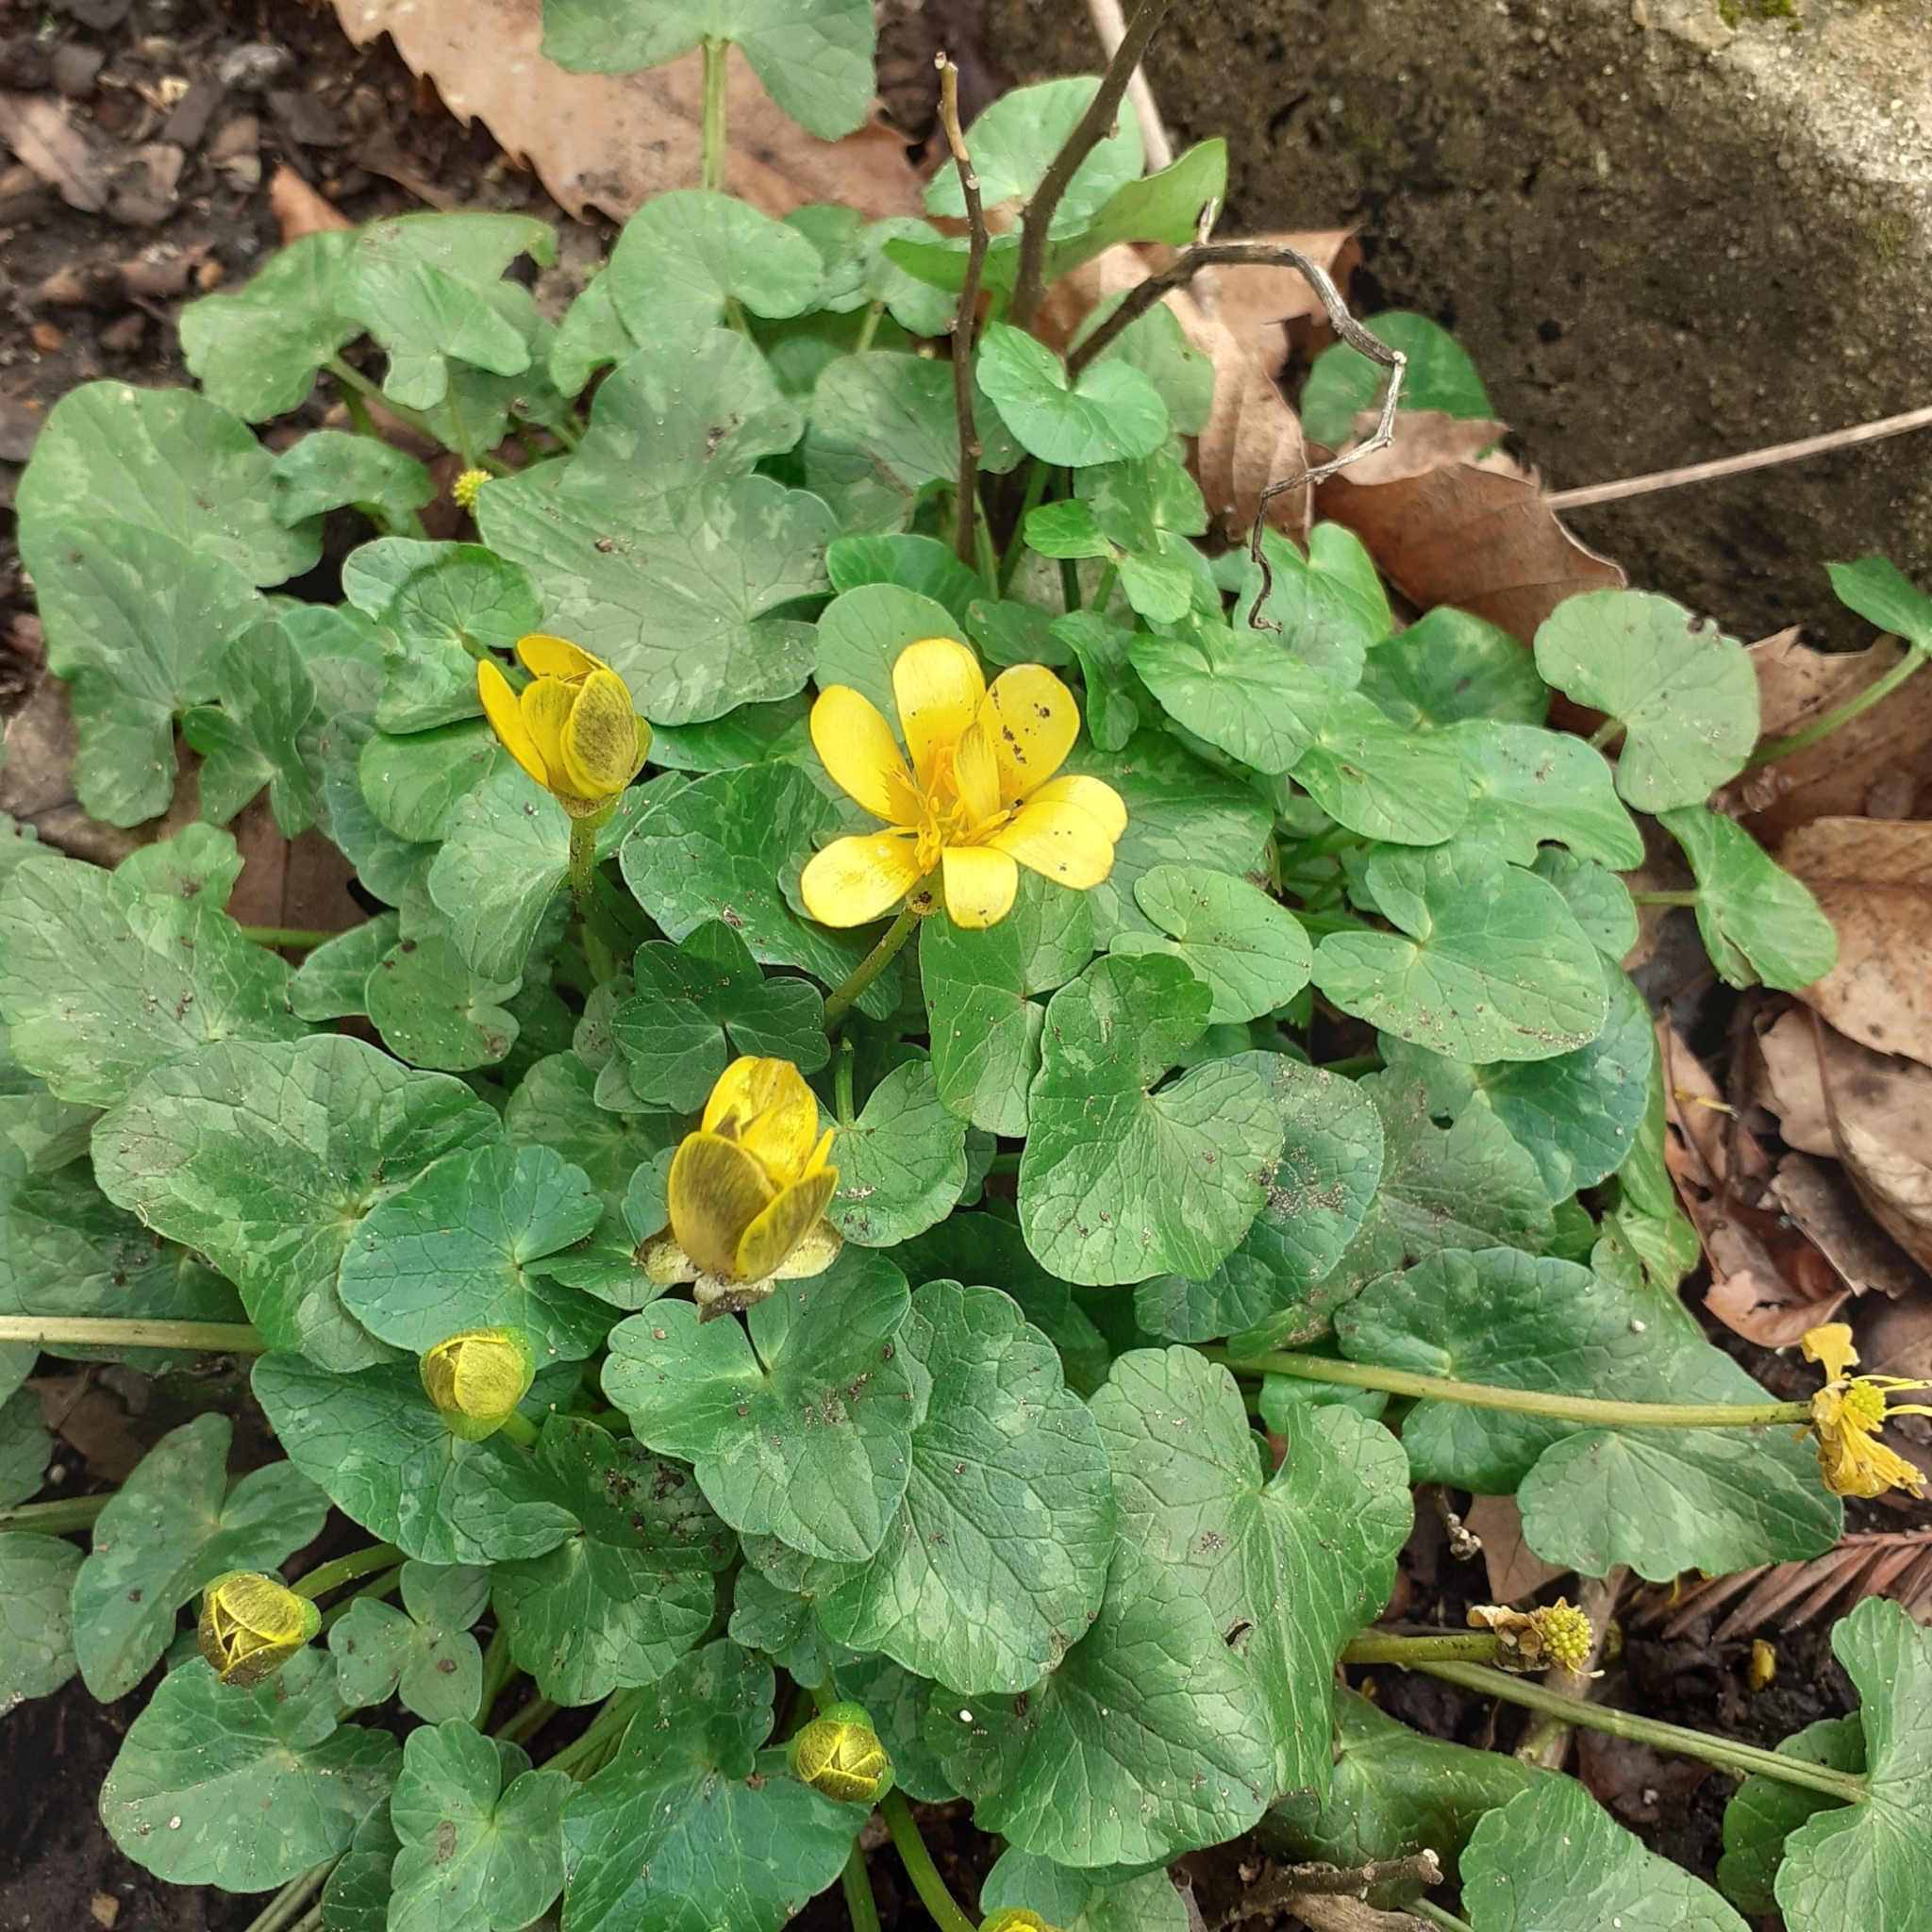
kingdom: Plantae
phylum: Tracheophyta
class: Magnoliopsida
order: Ranunculales
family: Ranunculaceae
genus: Ficaria
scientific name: Ficaria verna
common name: Lesser celandine
